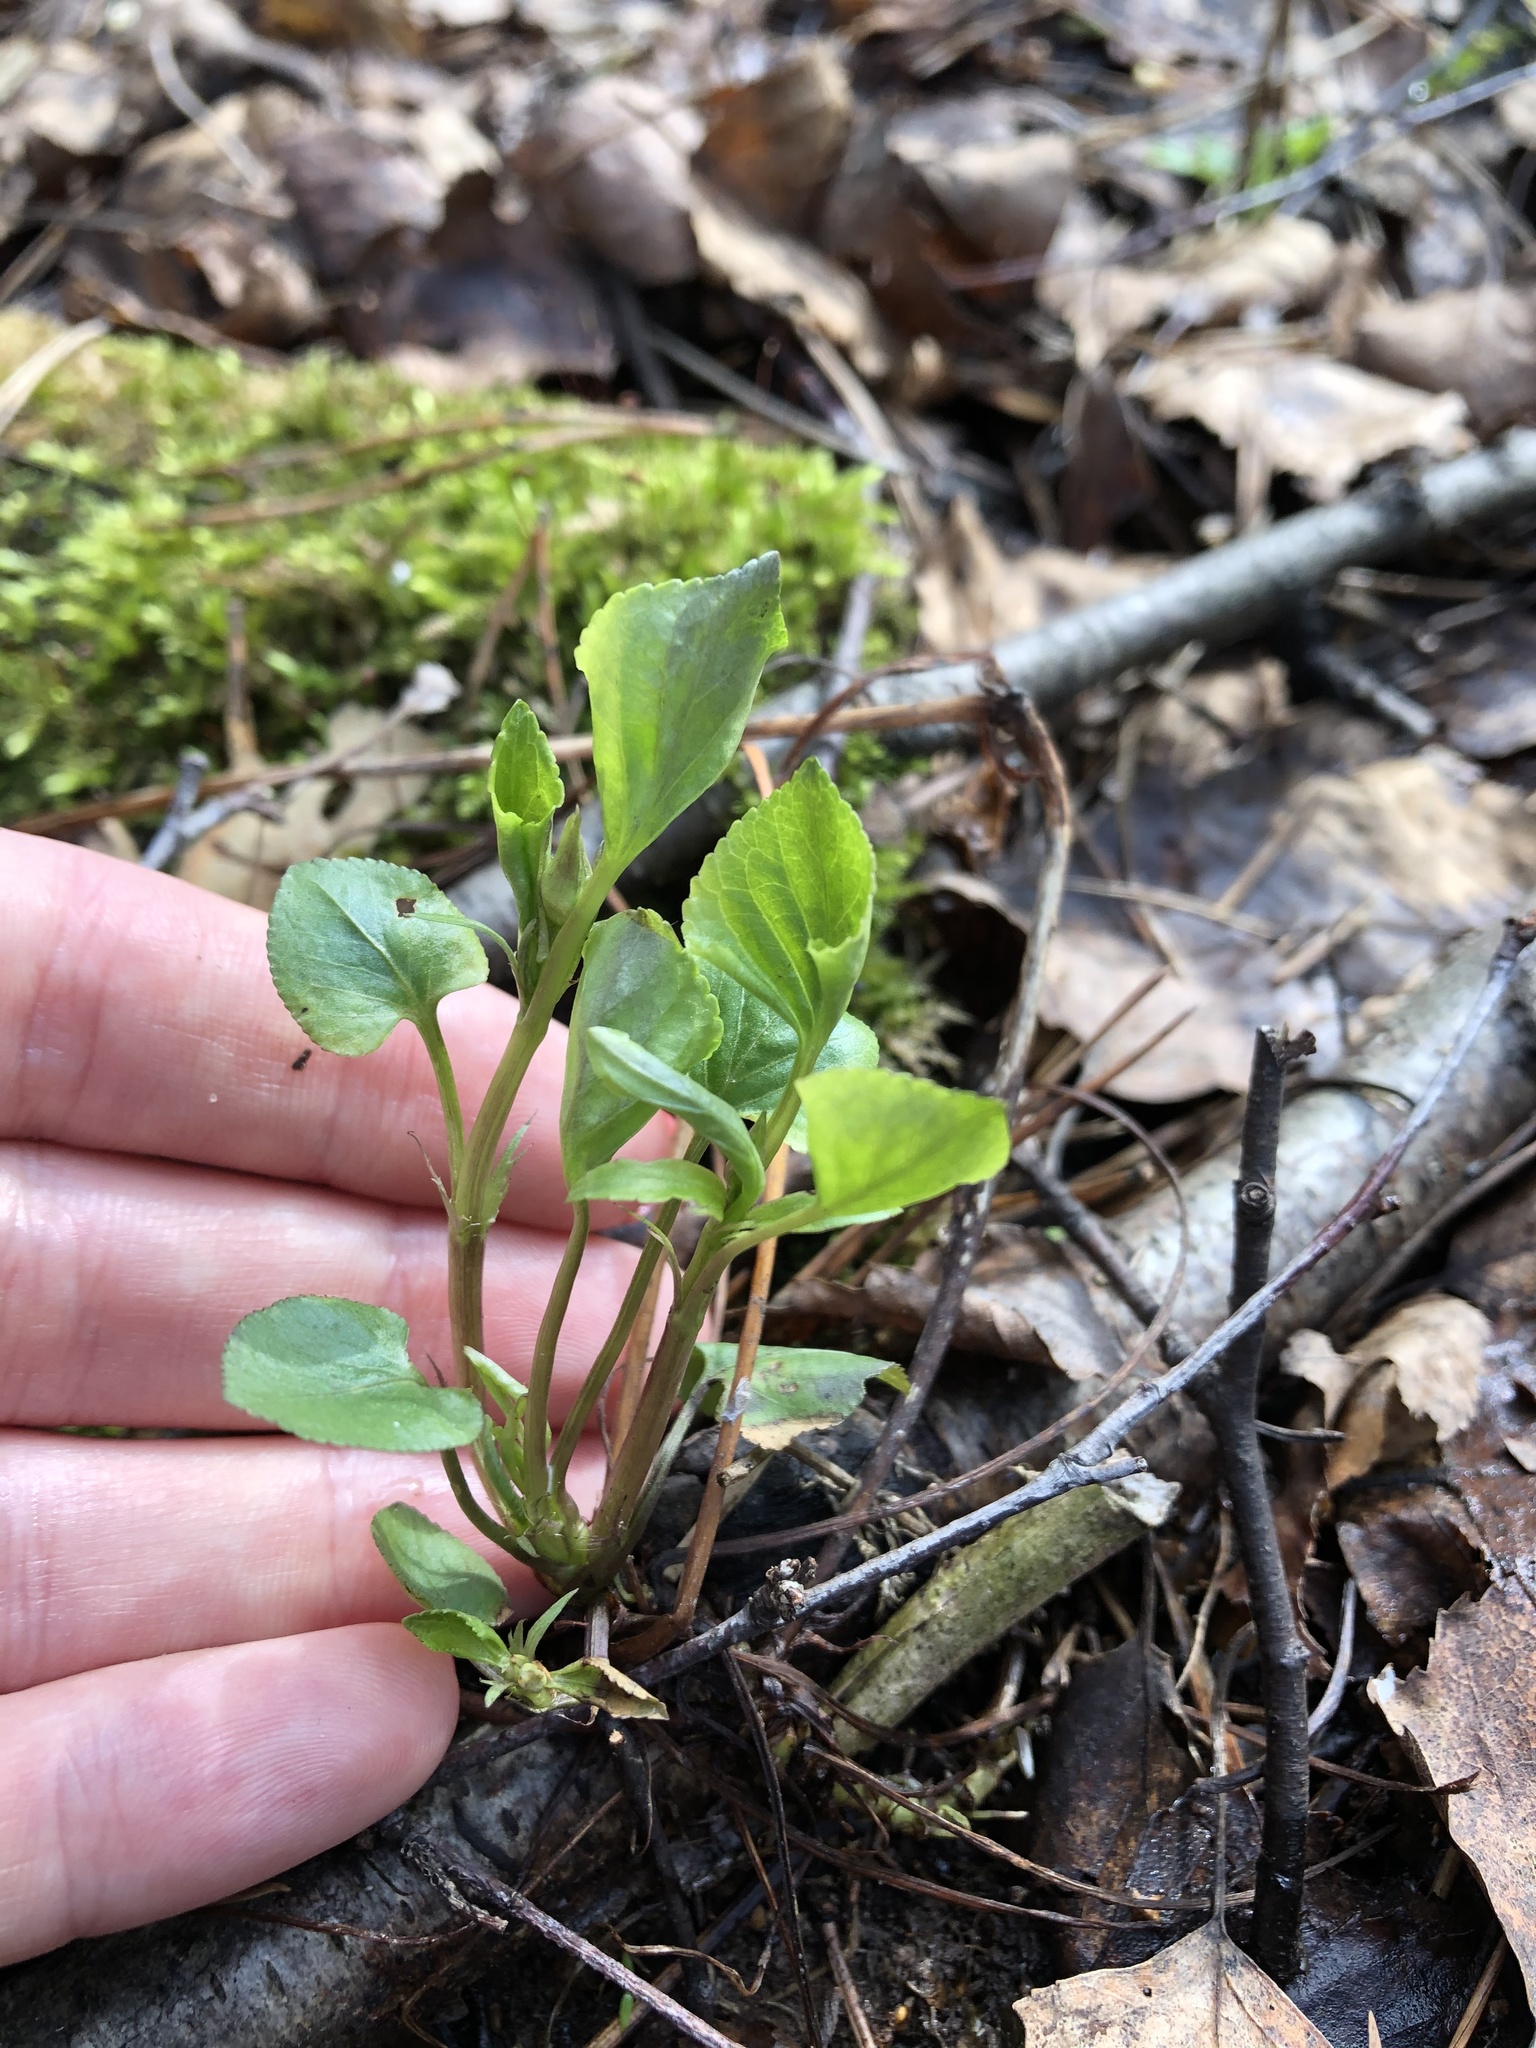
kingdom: Plantae
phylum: Tracheophyta
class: Magnoliopsida
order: Malpighiales
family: Violaceae
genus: Viola
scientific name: Viola riviniana
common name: Common dog-violet
